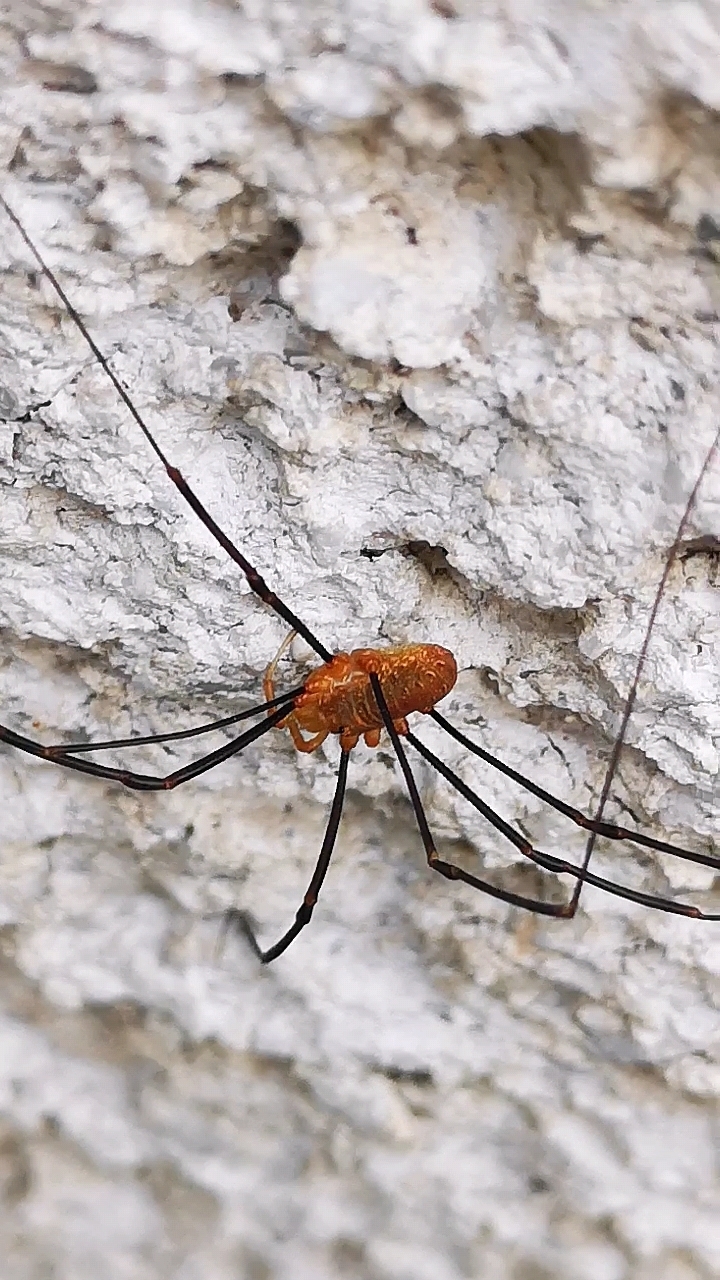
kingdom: Animalia
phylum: Arthropoda
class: Arachnida
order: Opiliones
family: Phalangiidae
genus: Opilio
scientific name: Opilio canestrinii
